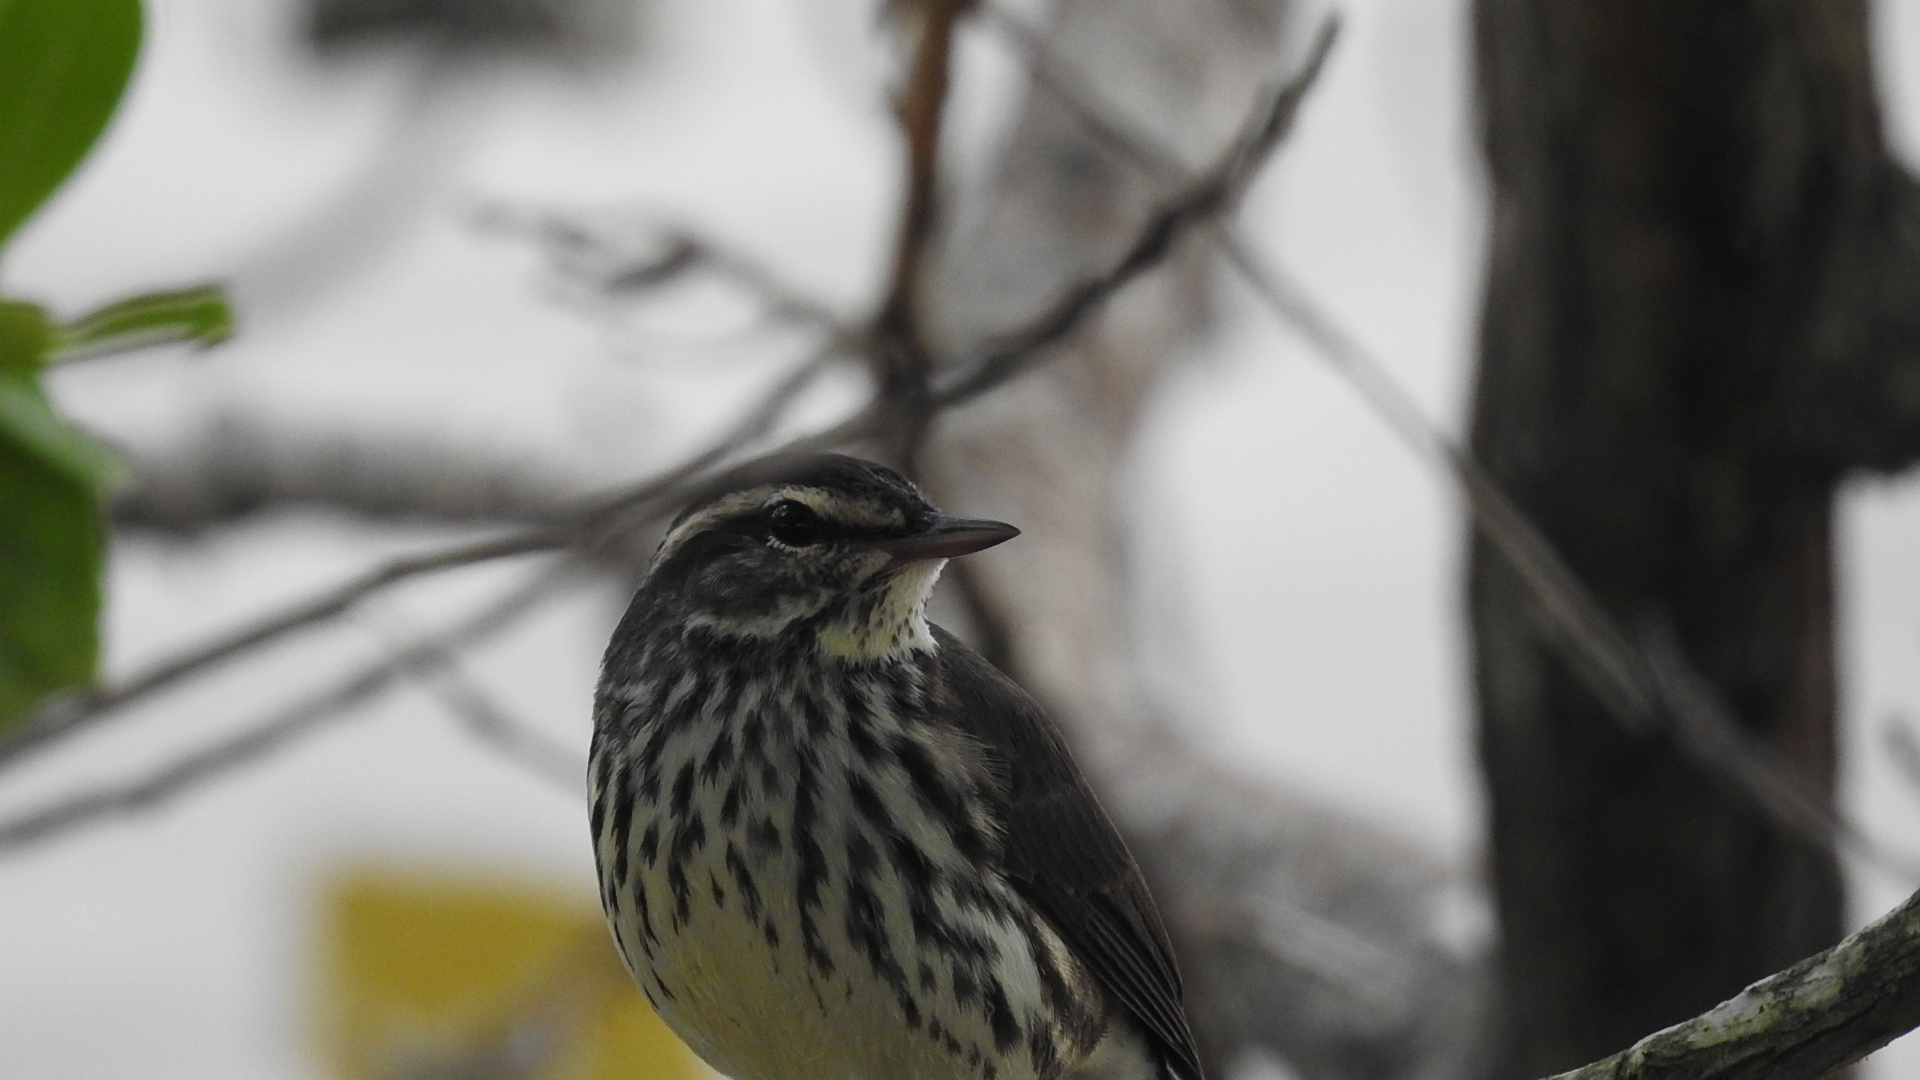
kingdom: Animalia
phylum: Chordata
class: Aves
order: Passeriformes
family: Parulidae
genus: Parkesia
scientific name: Parkesia noveboracensis
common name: Northern waterthrush
